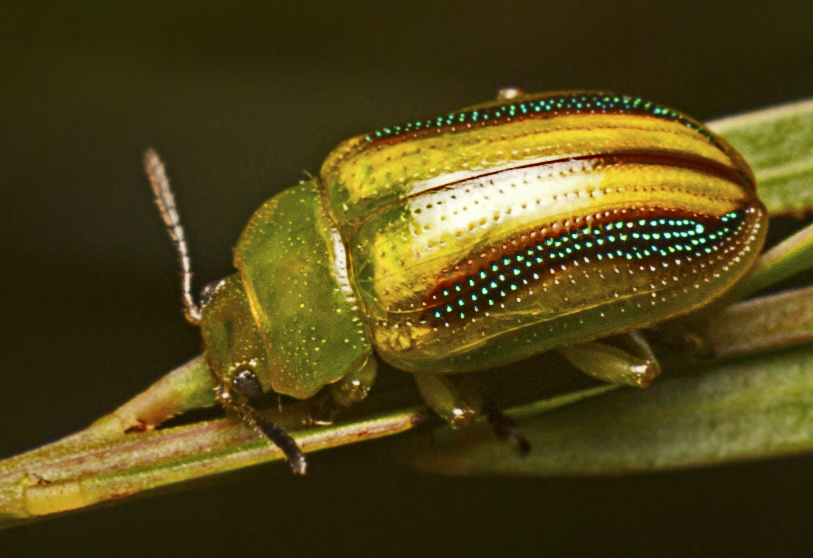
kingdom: Animalia
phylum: Arthropoda
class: Insecta
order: Coleoptera
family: Chrysomelidae
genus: Calomela
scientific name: Calomela
